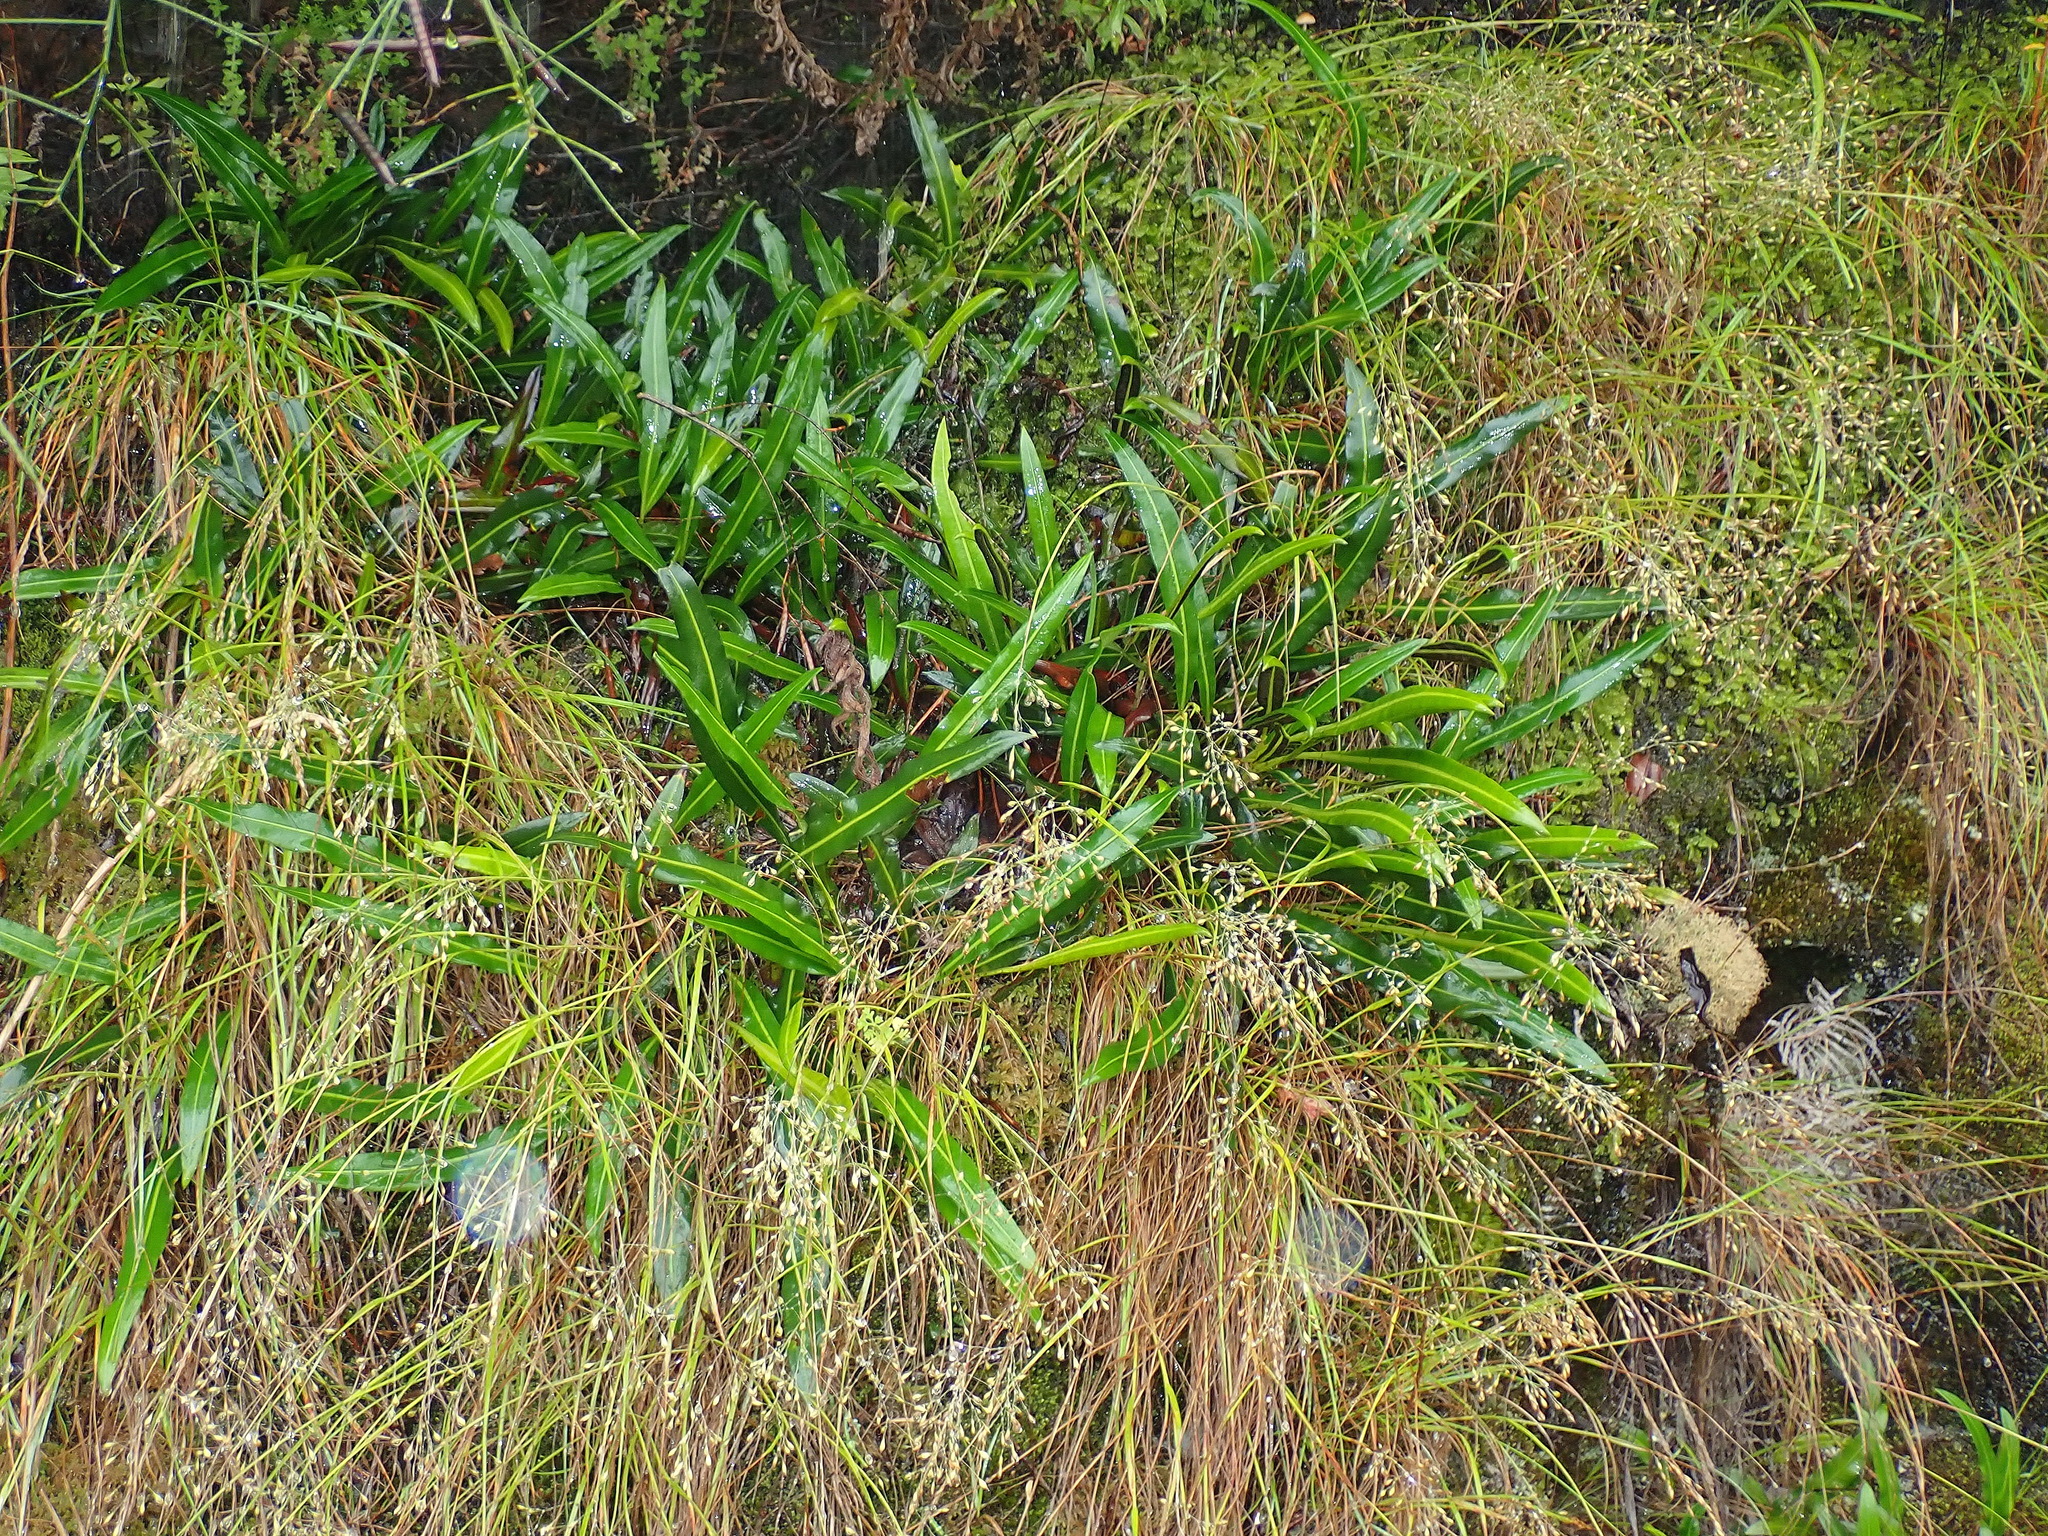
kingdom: Plantae
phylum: Tracheophyta
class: Polypodiopsida
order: Polypodiales
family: Dryopteridaceae
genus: Elaphoglossum
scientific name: Elaphoglossum acrostichoides
